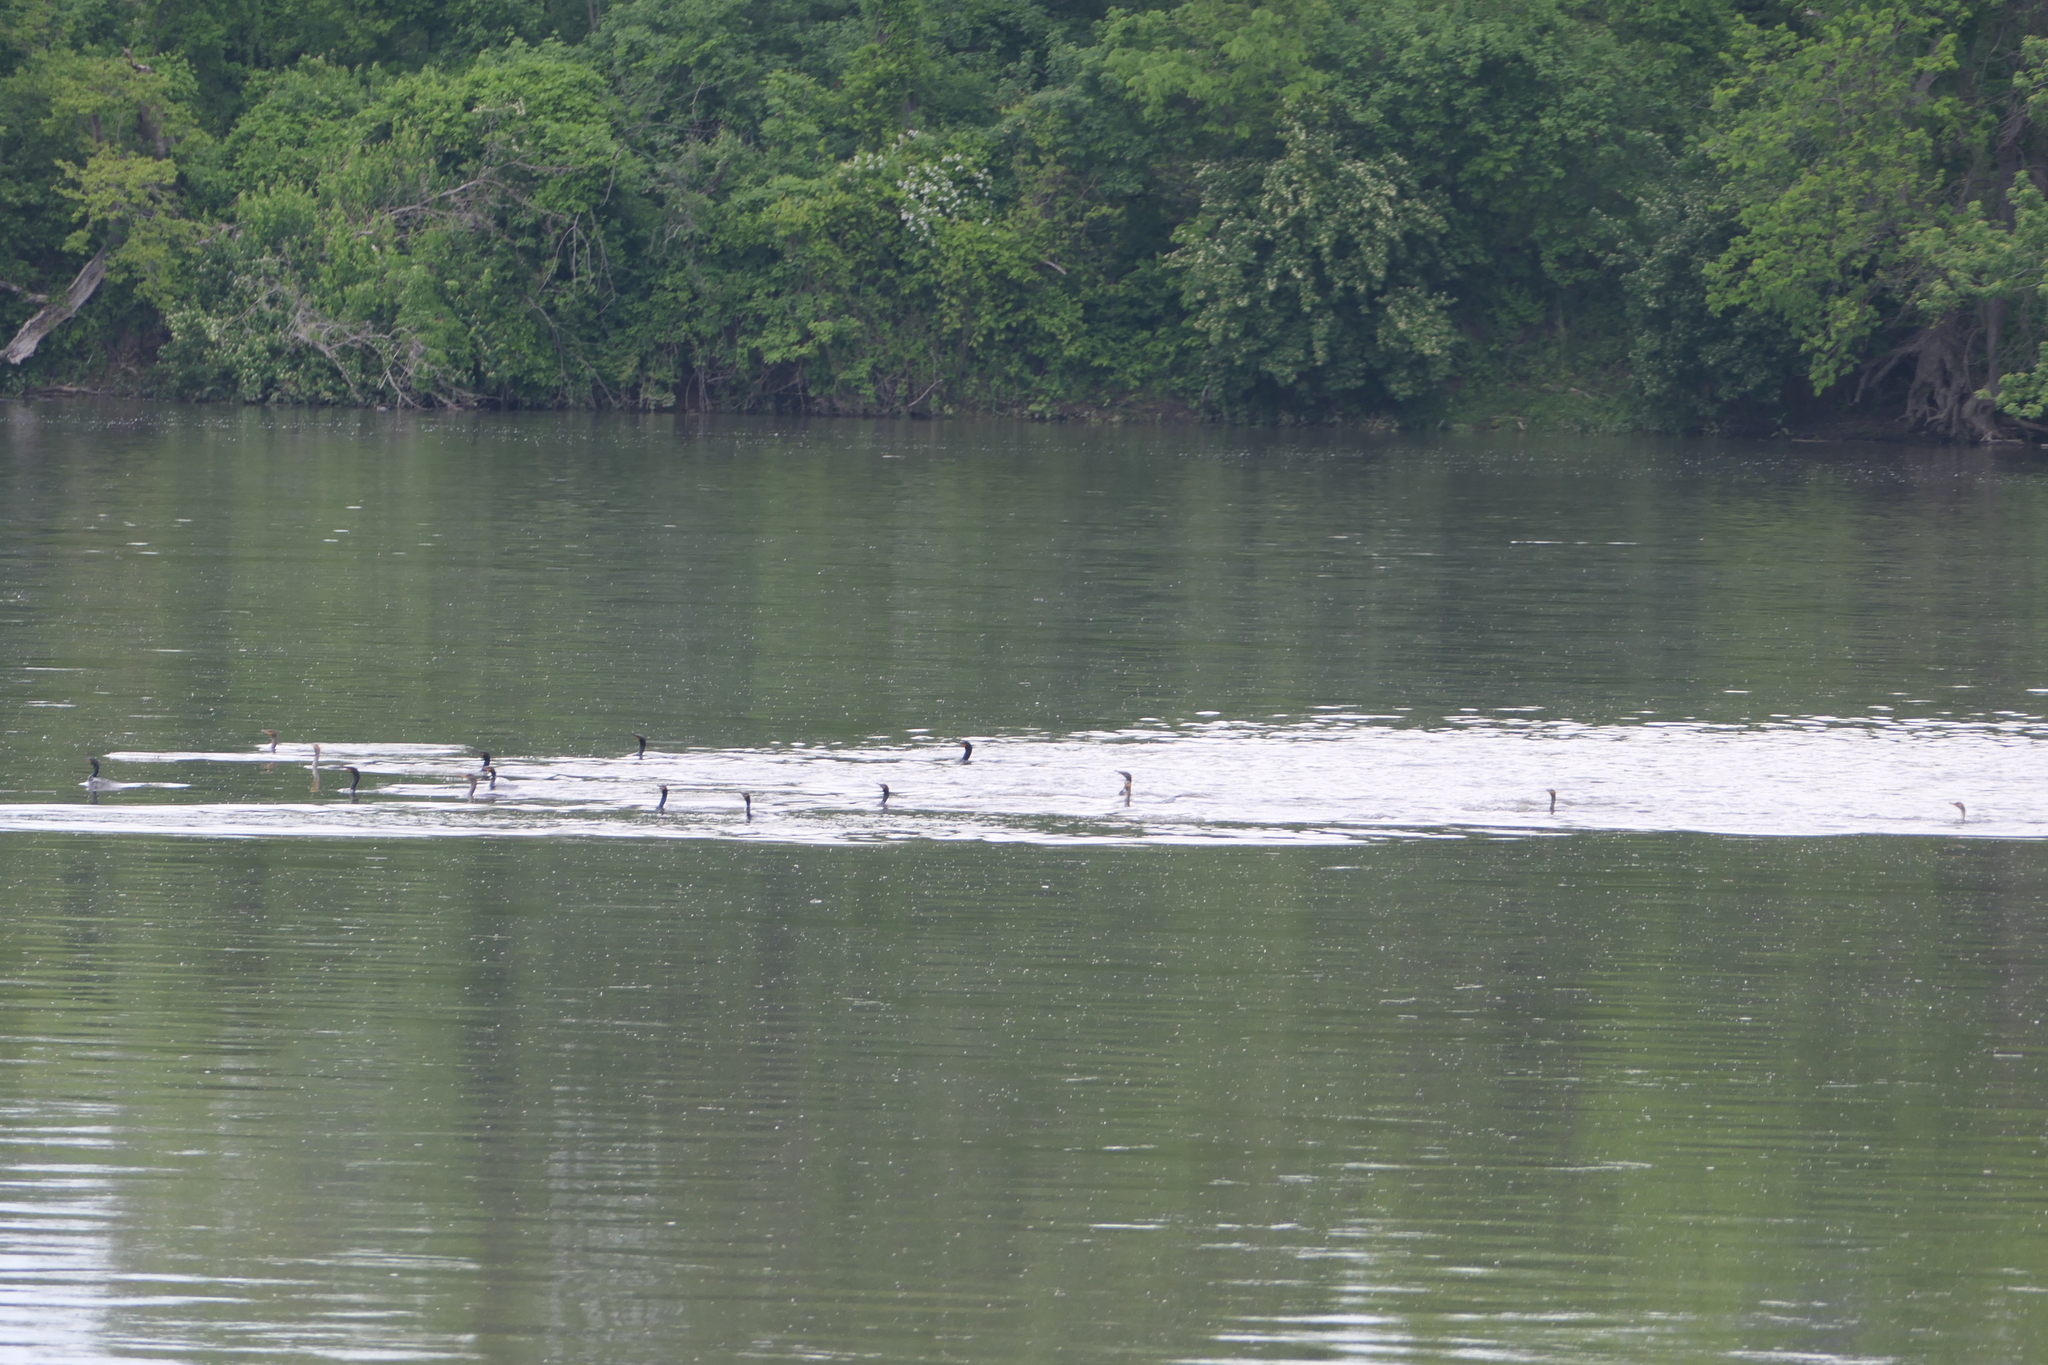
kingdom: Animalia
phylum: Chordata
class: Aves
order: Suliformes
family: Phalacrocoracidae
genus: Phalacrocorax
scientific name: Phalacrocorax auritus
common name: Double-crested cormorant
